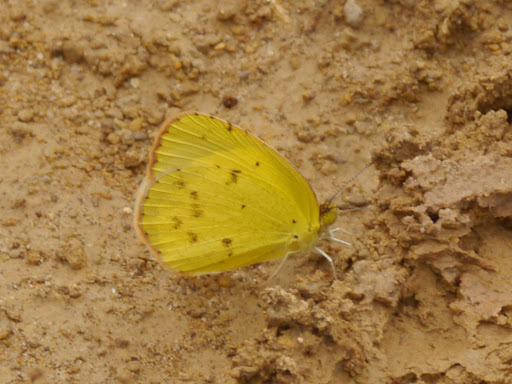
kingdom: Animalia
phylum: Arthropoda
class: Insecta
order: Lepidoptera
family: Pieridae
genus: Pyrisitia
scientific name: Pyrisitia lisa
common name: Little yellow
